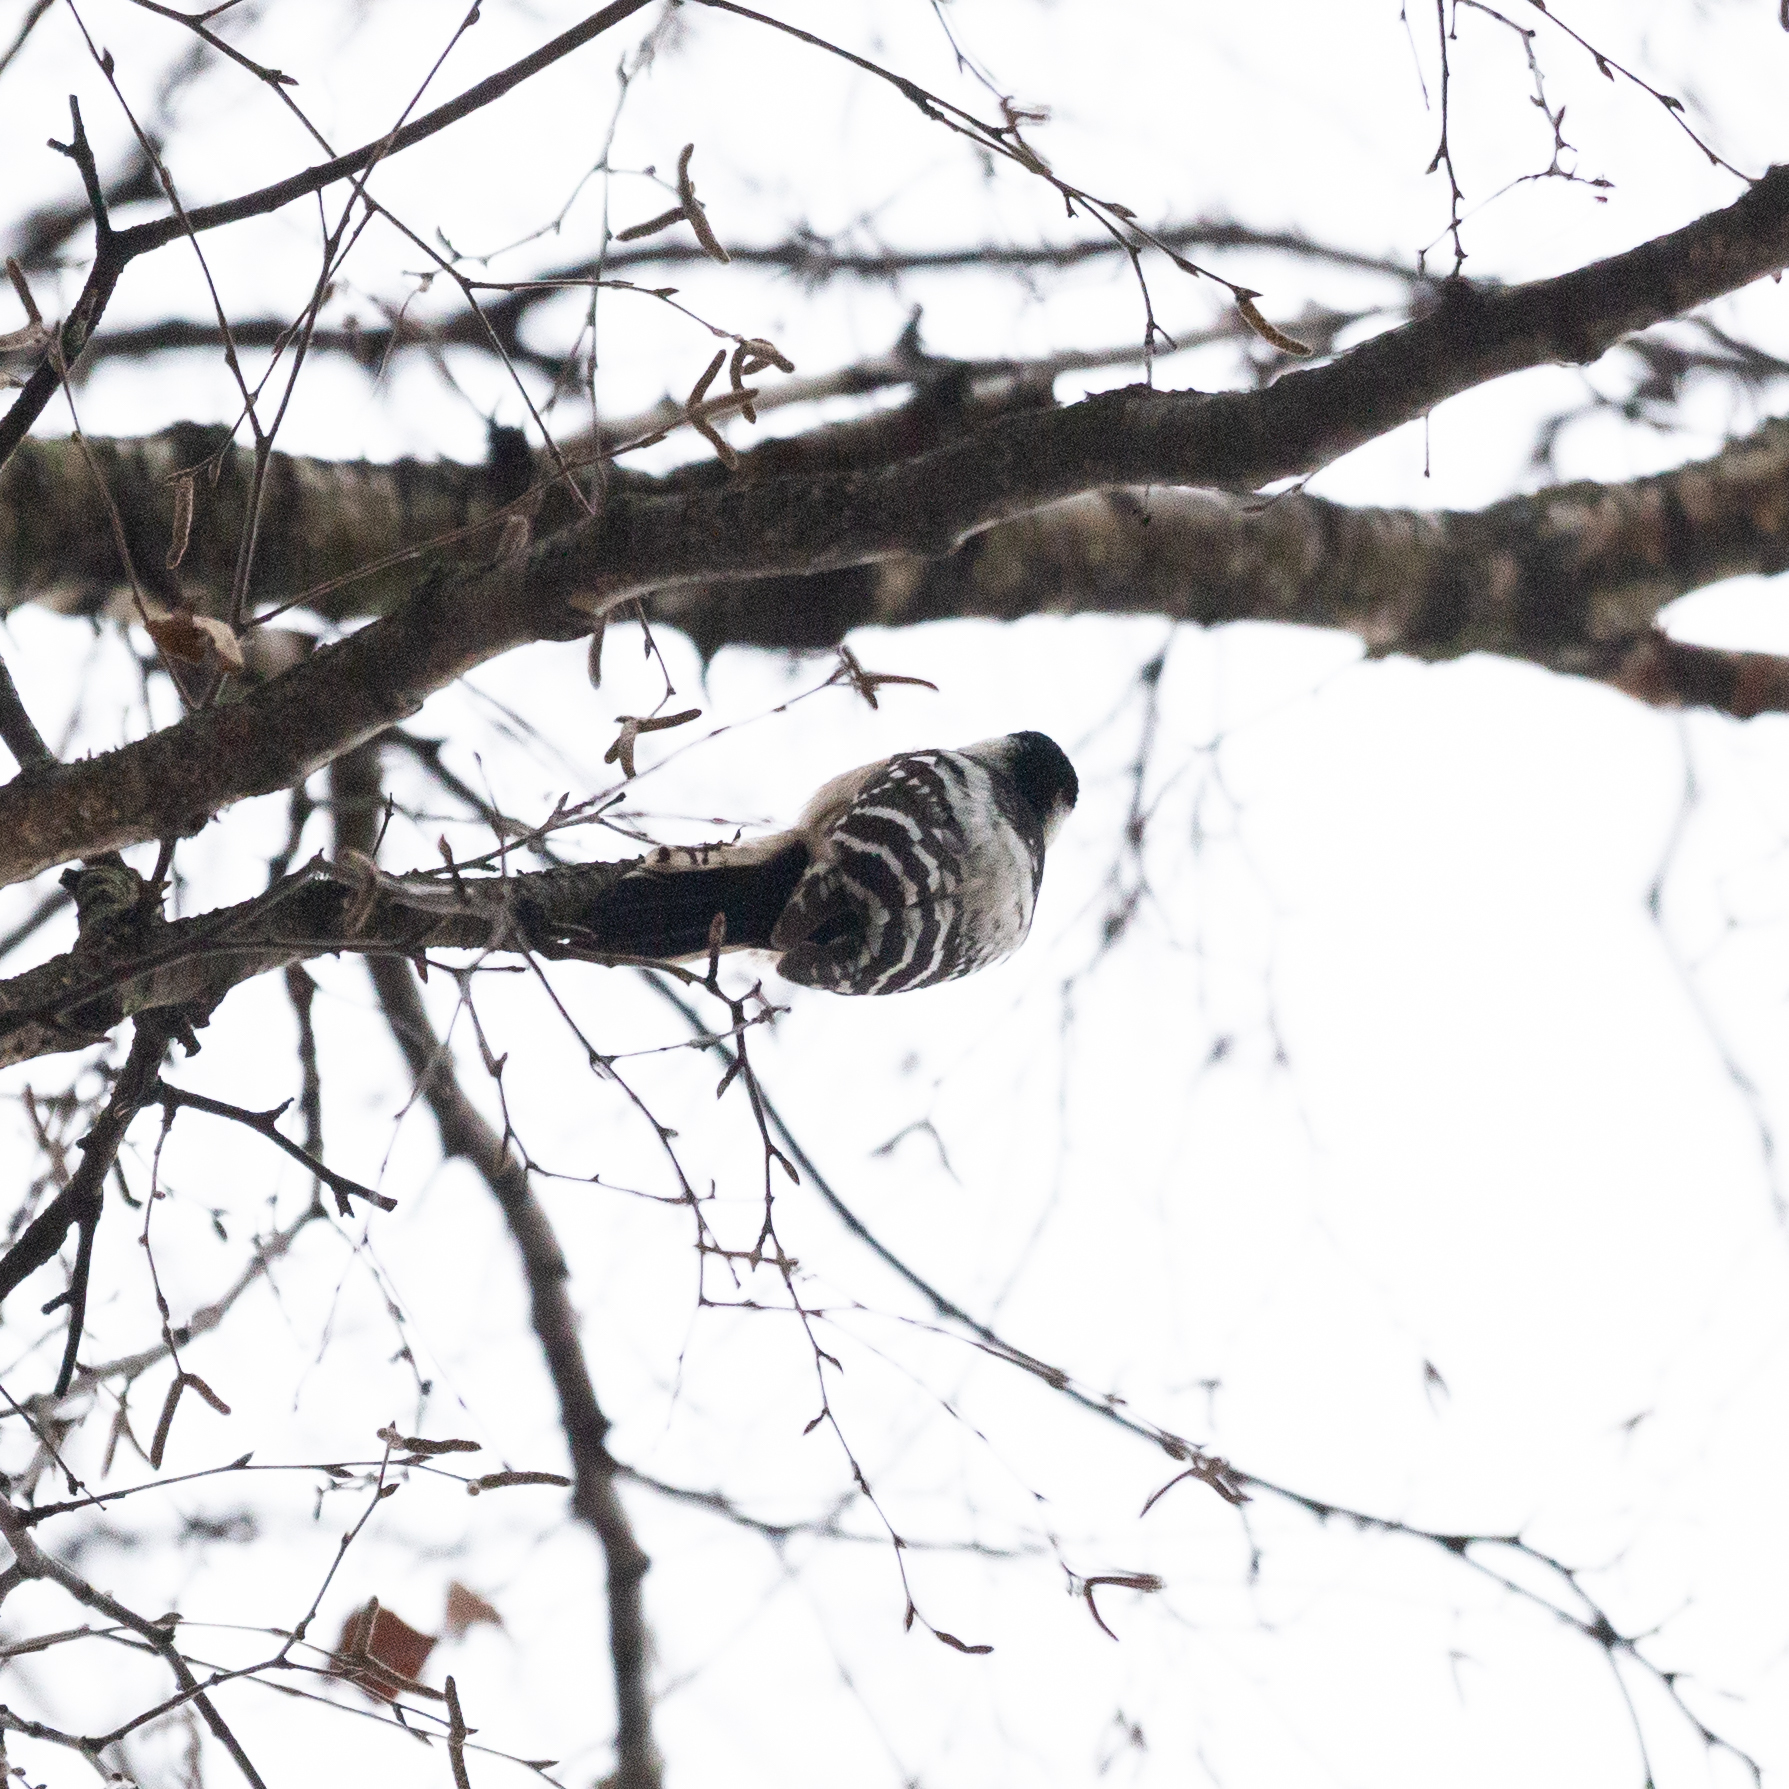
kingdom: Animalia
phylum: Chordata
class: Aves
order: Piciformes
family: Picidae
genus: Dryobates
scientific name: Dryobates minor
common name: Lesser spotted woodpecker
